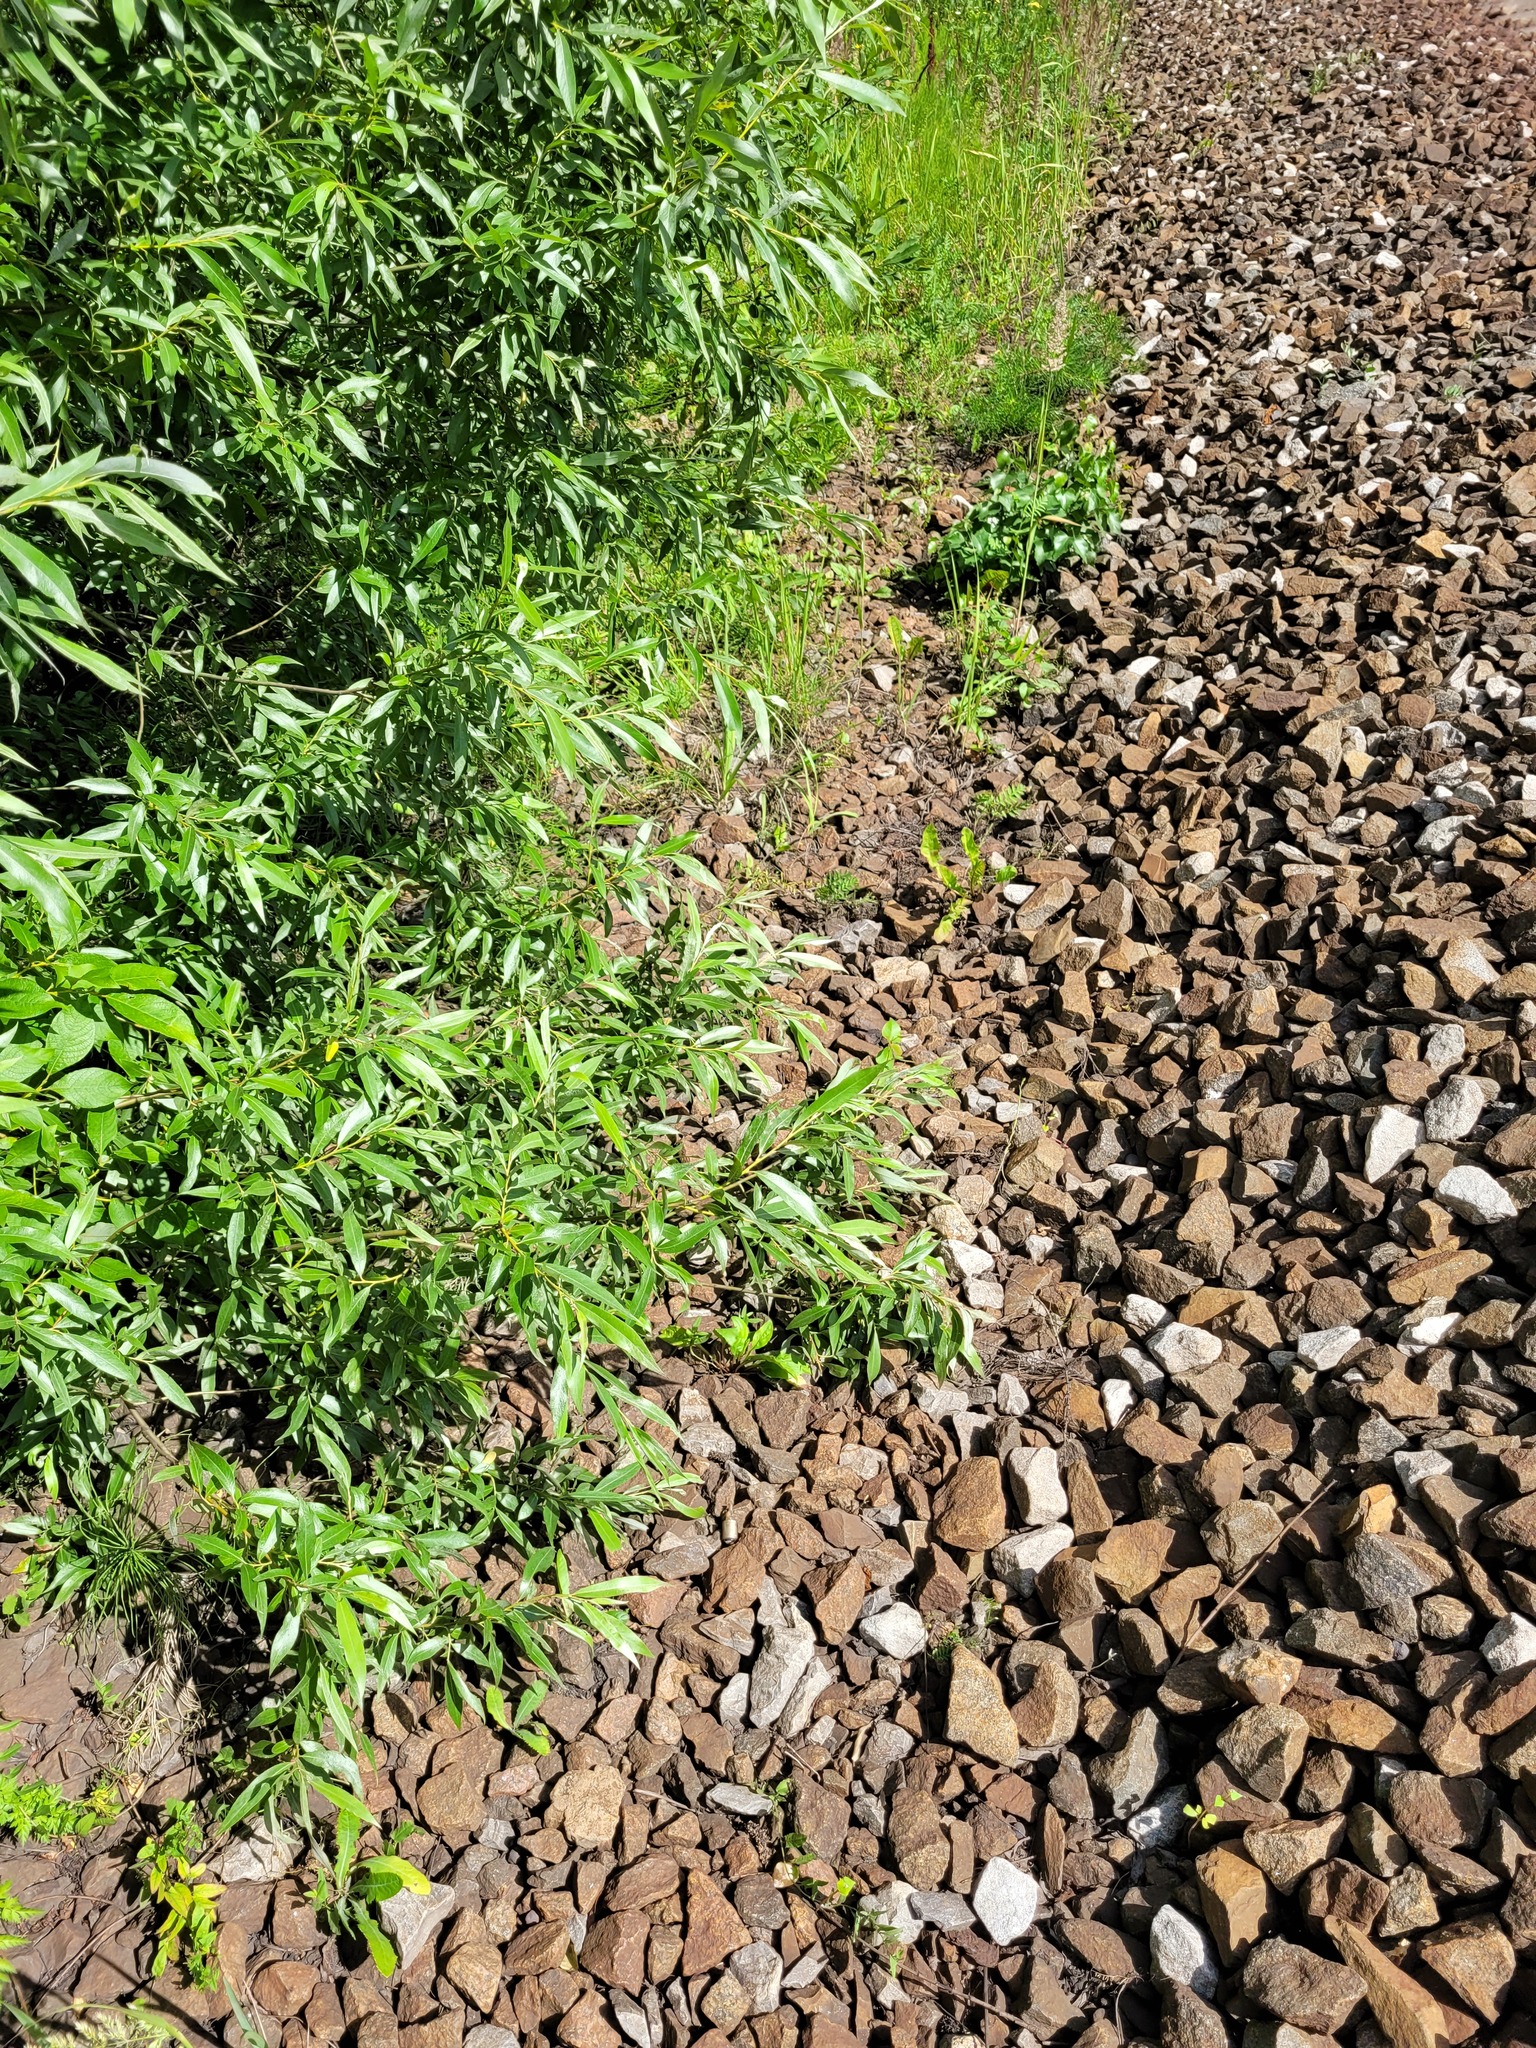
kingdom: Plantae
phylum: Tracheophyta
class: Magnoliopsida
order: Malpighiales
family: Salicaceae
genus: Salix
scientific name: Salix alba
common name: White willow
